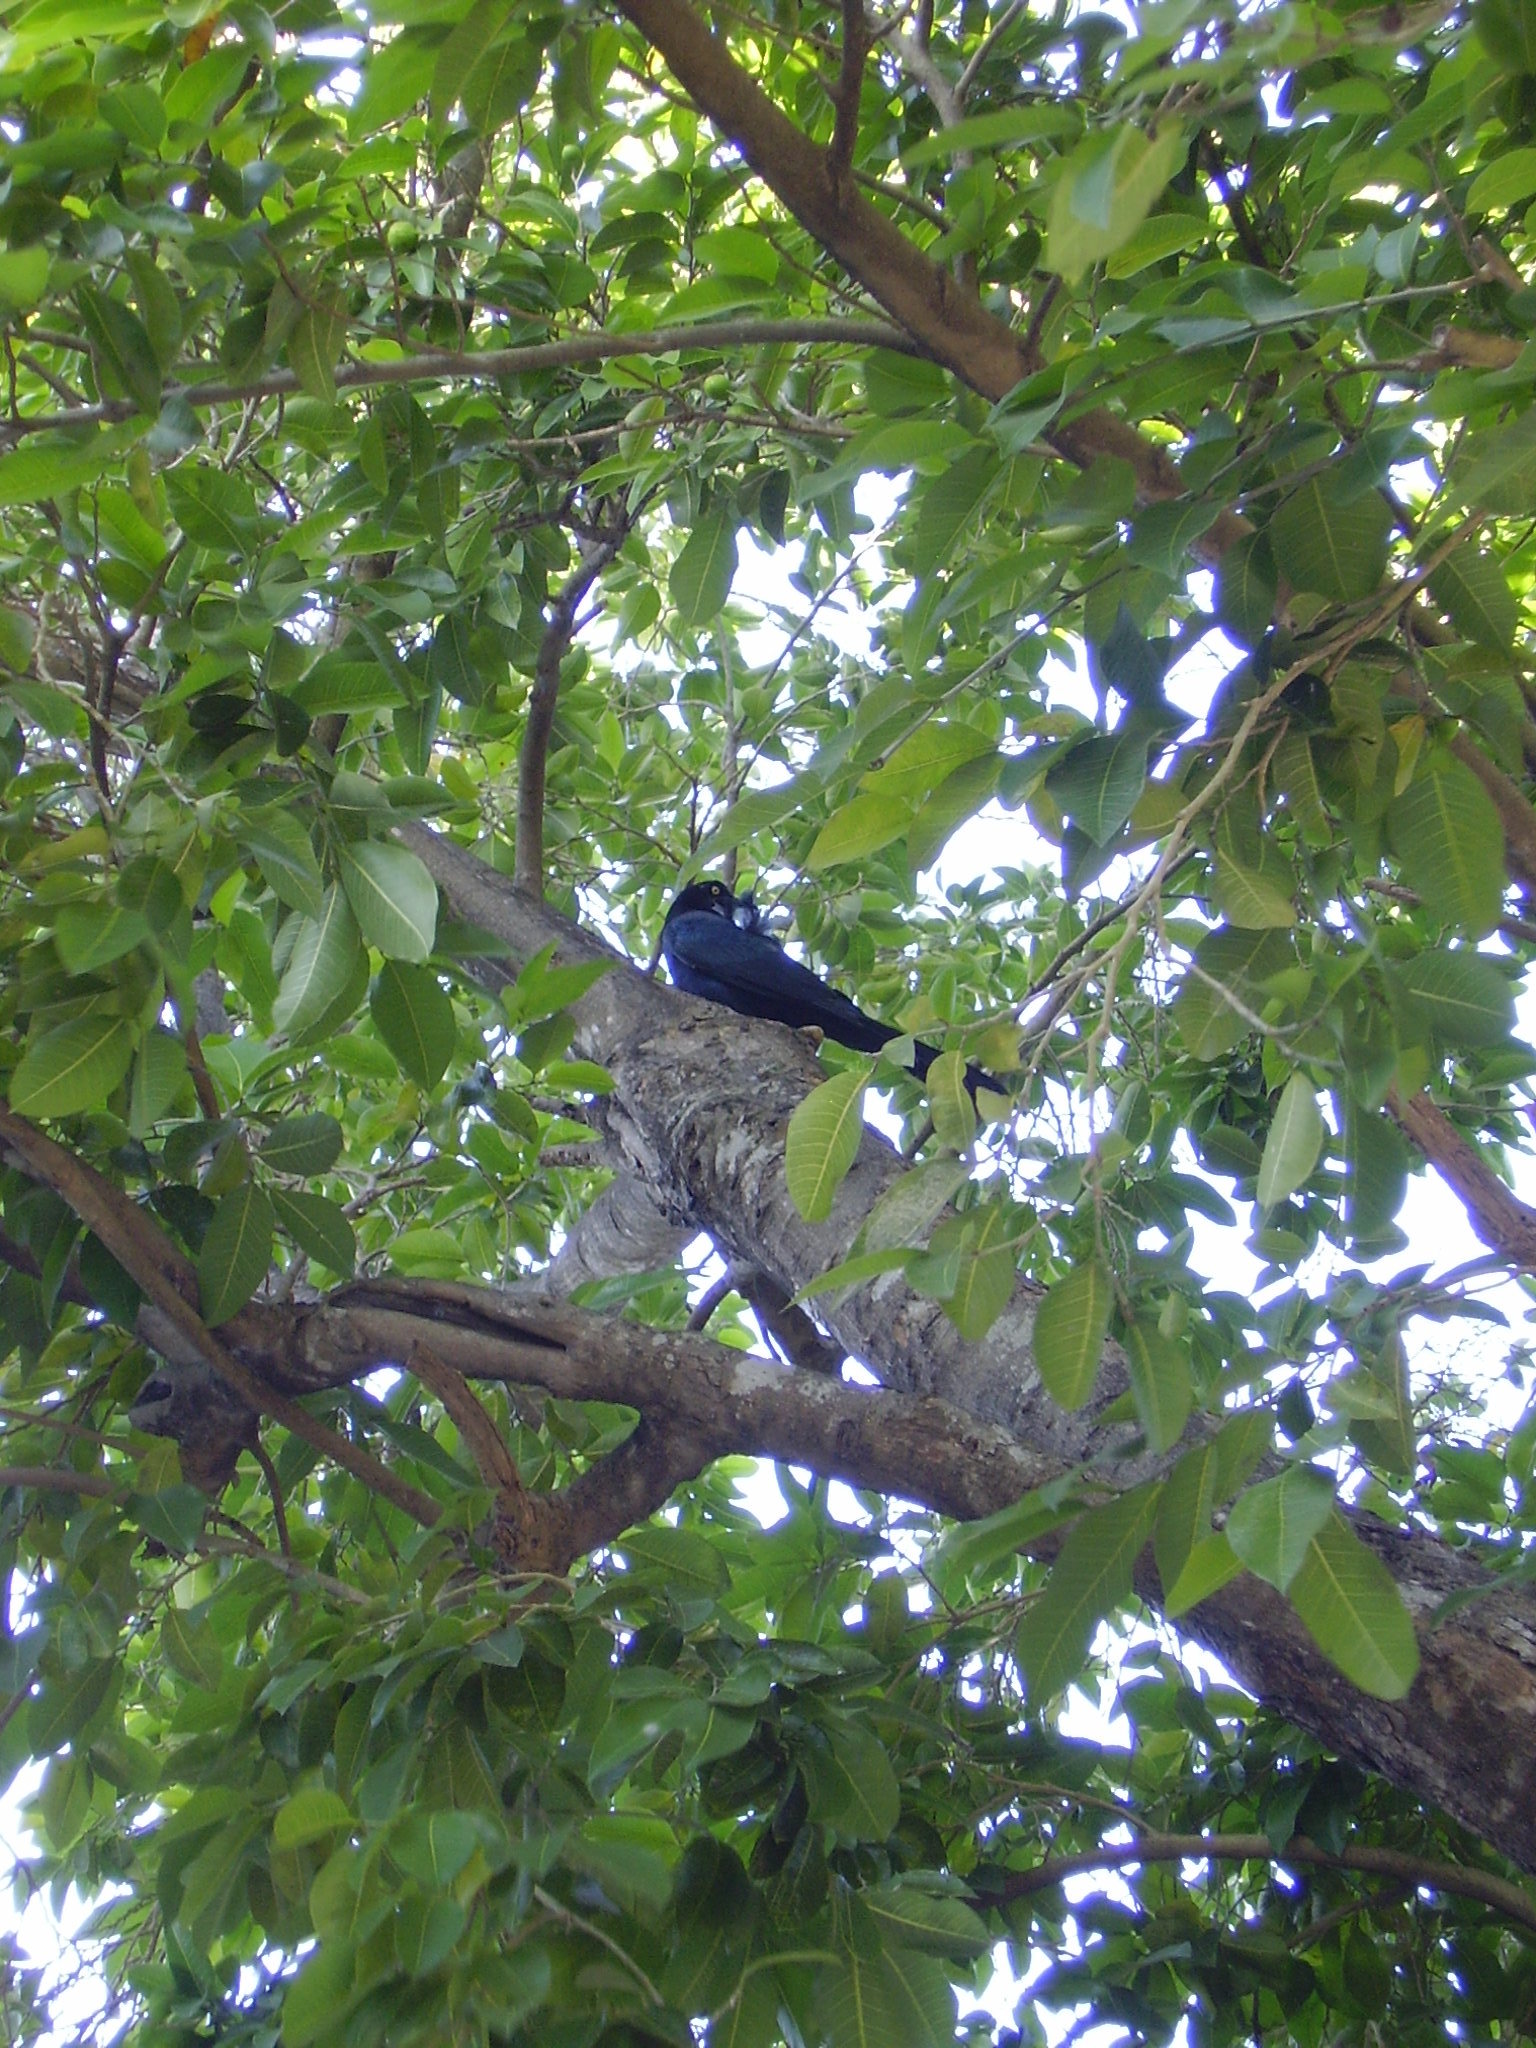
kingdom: Animalia
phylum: Chordata
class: Aves
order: Passeriformes
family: Icteridae
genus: Quiscalus
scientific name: Quiscalus mexicanus
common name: Great-tailed grackle
